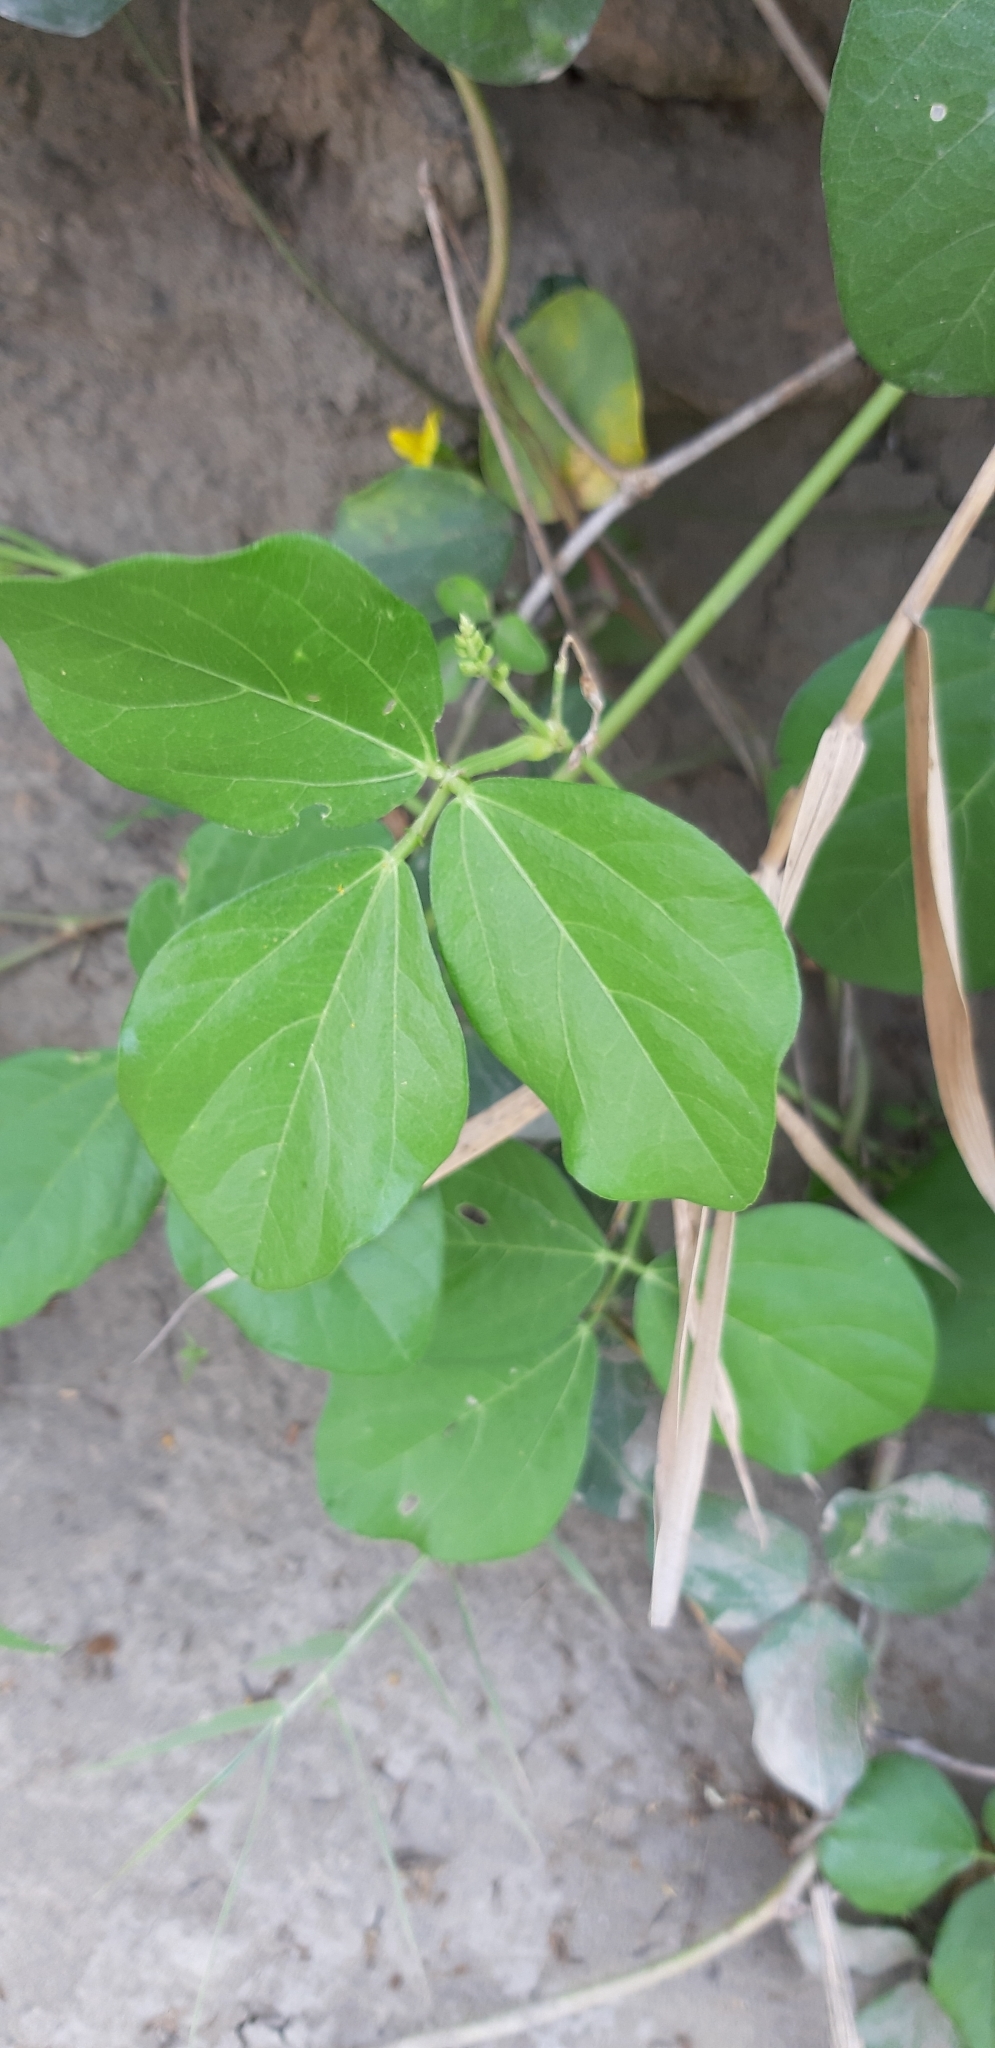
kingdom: Plantae
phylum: Tracheophyta
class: Magnoliopsida
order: Fabales
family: Fabaceae
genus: Vigna
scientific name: Vigna marina
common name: Dune-bean
